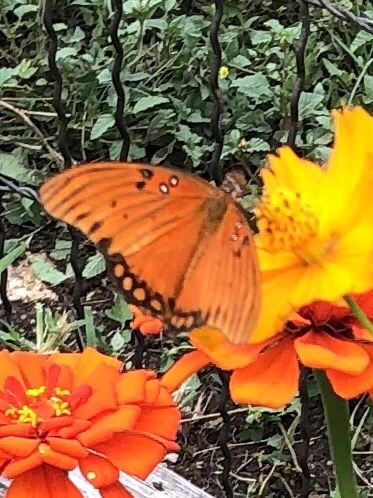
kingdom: Animalia
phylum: Arthropoda
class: Insecta
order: Lepidoptera
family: Nymphalidae
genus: Dione
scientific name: Dione vanillae
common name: Gulf fritillary
